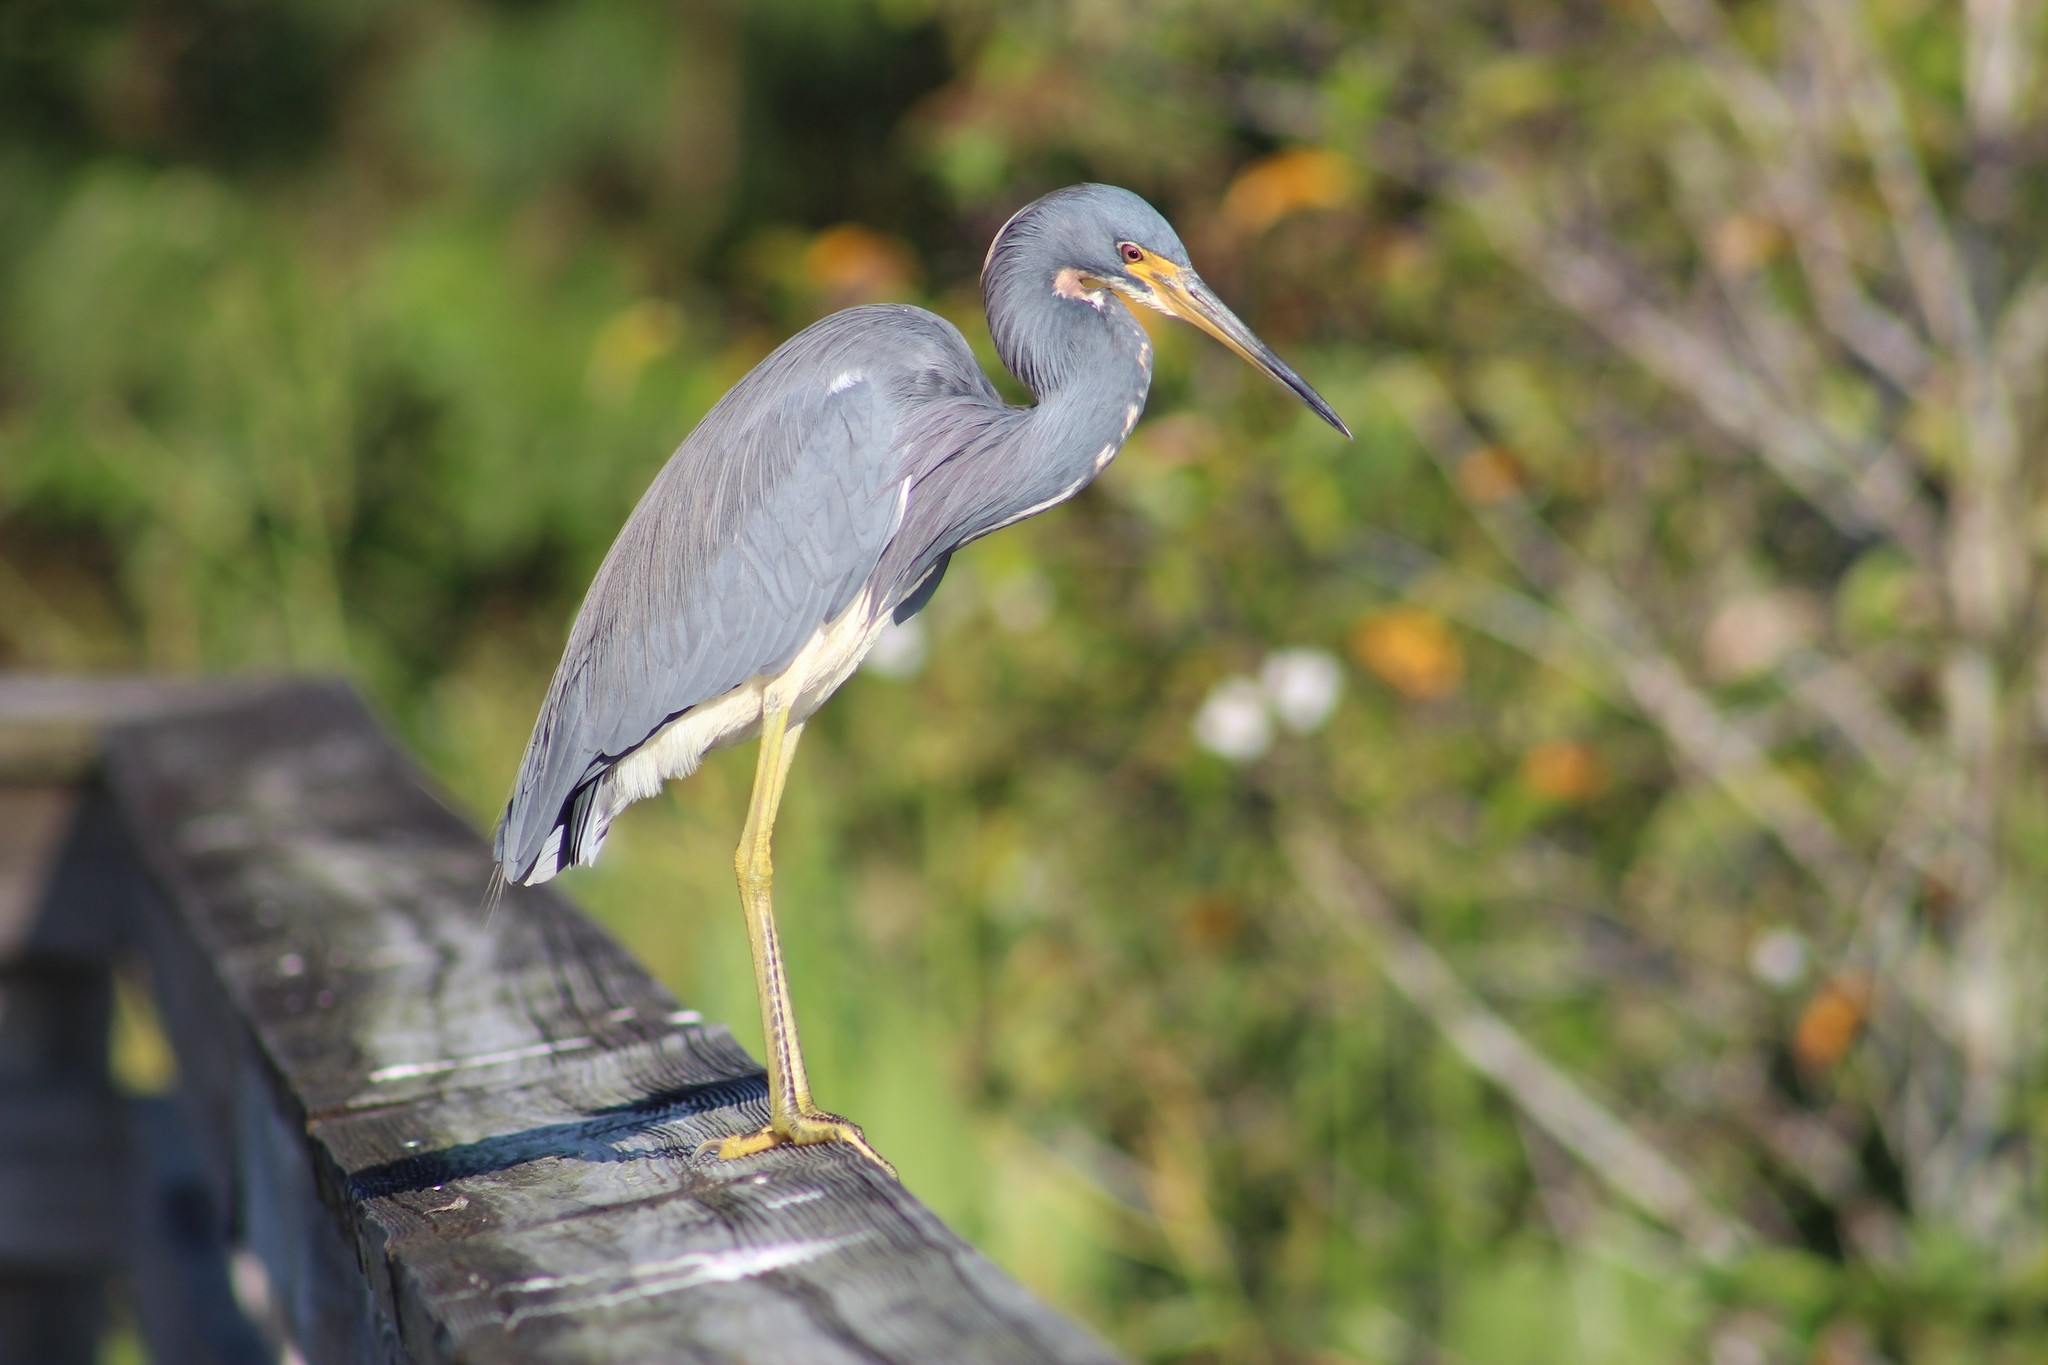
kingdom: Animalia
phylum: Chordata
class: Aves
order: Pelecaniformes
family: Ardeidae
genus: Egretta
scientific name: Egretta tricolor
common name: Tricolored heron
